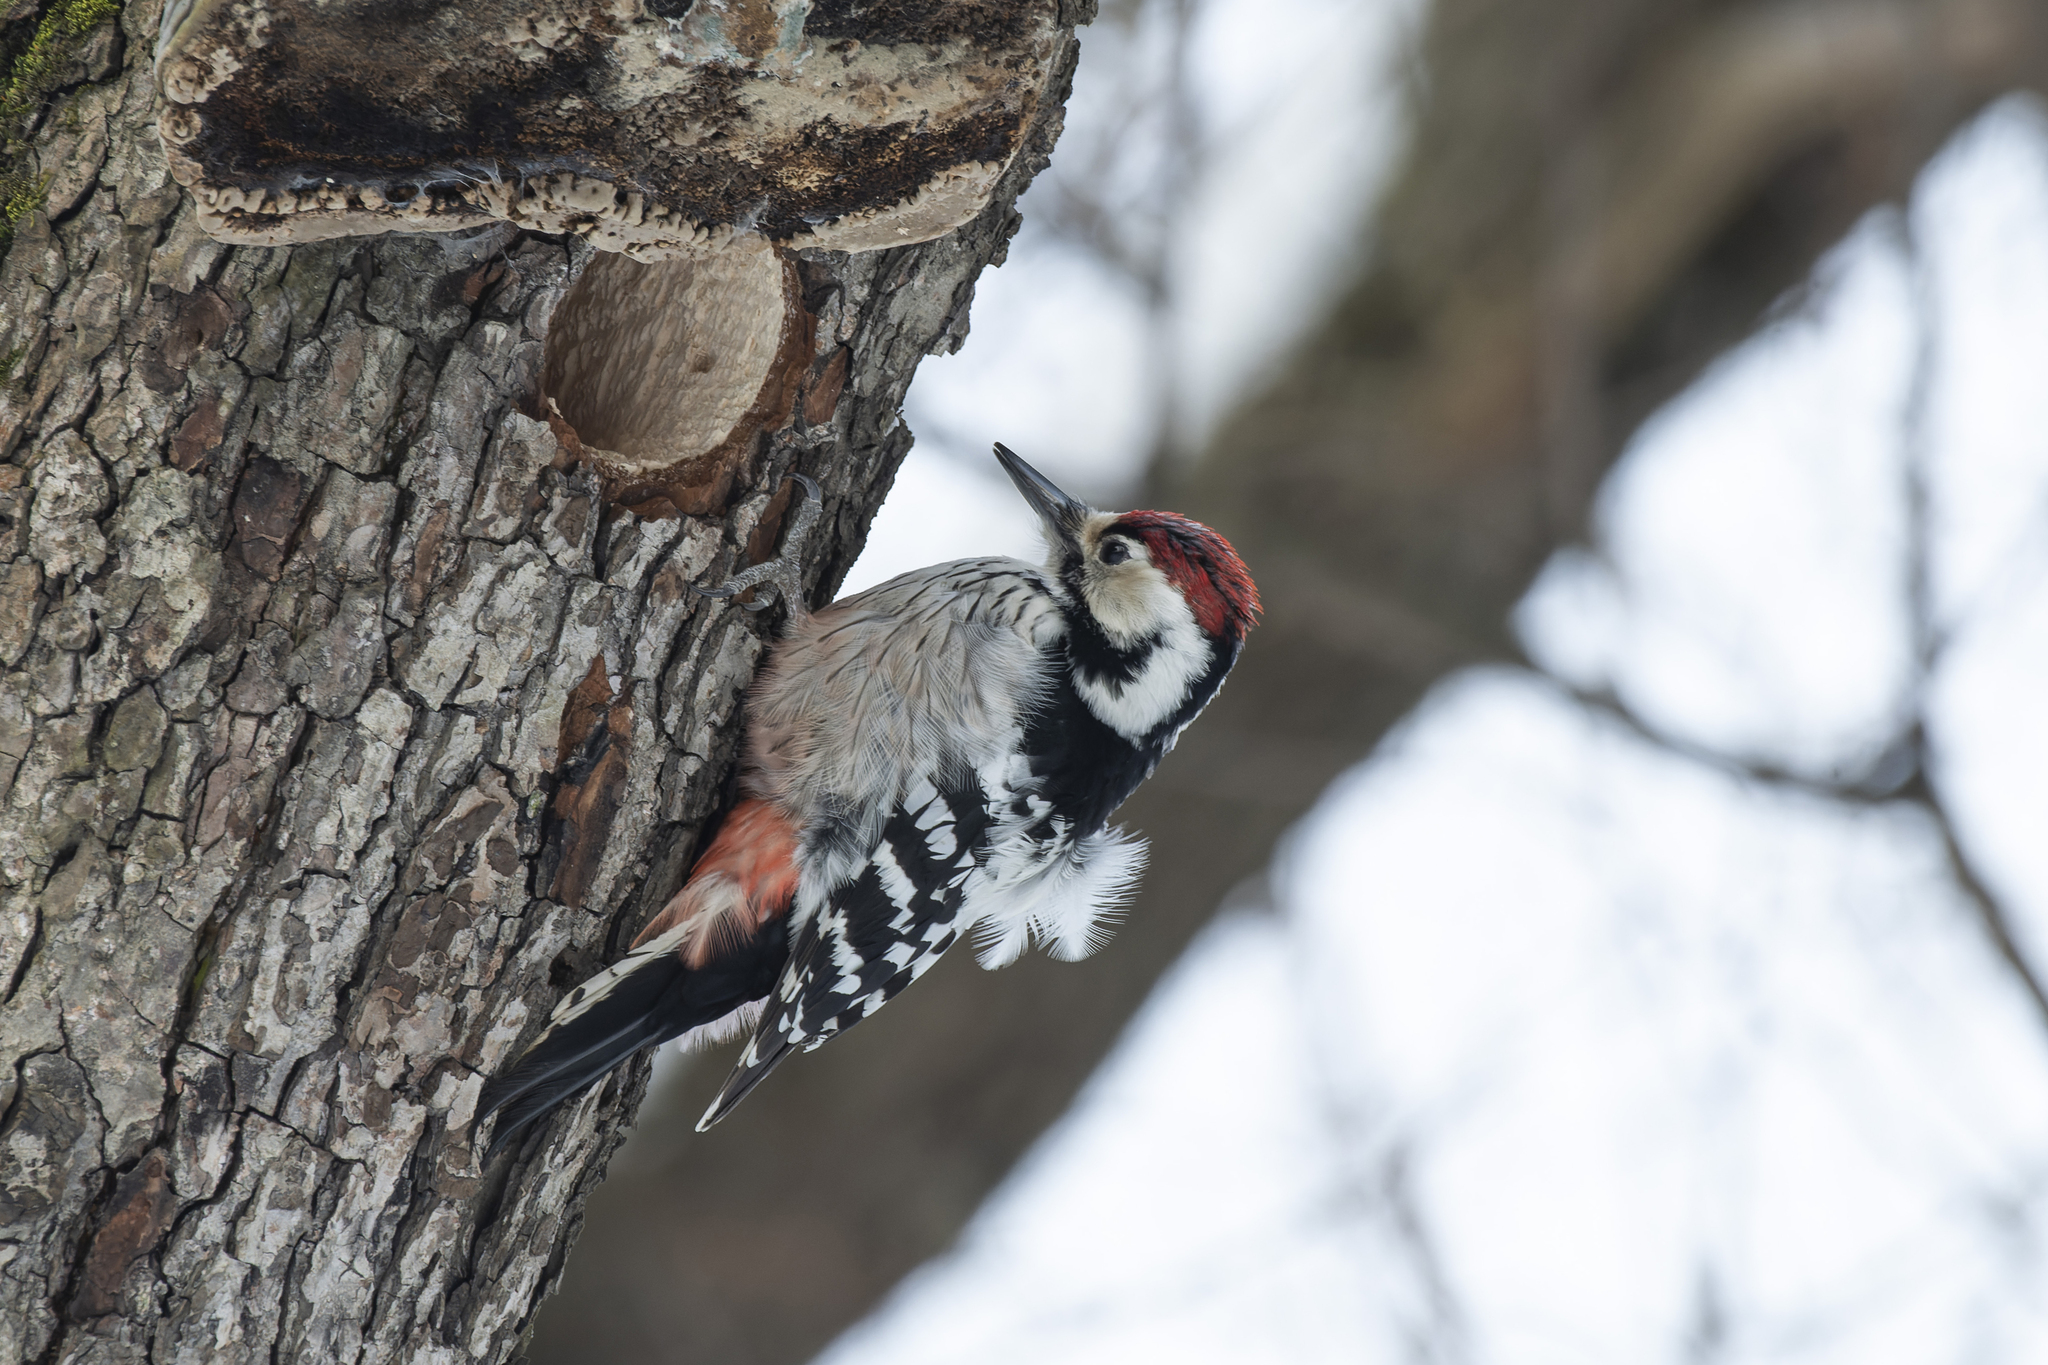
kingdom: Animalia
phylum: Chordata
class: Aves
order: Piciformes
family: Picidae
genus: Dendrocopos
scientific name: Dendrocopos leucotos
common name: White-backed woodpecker
